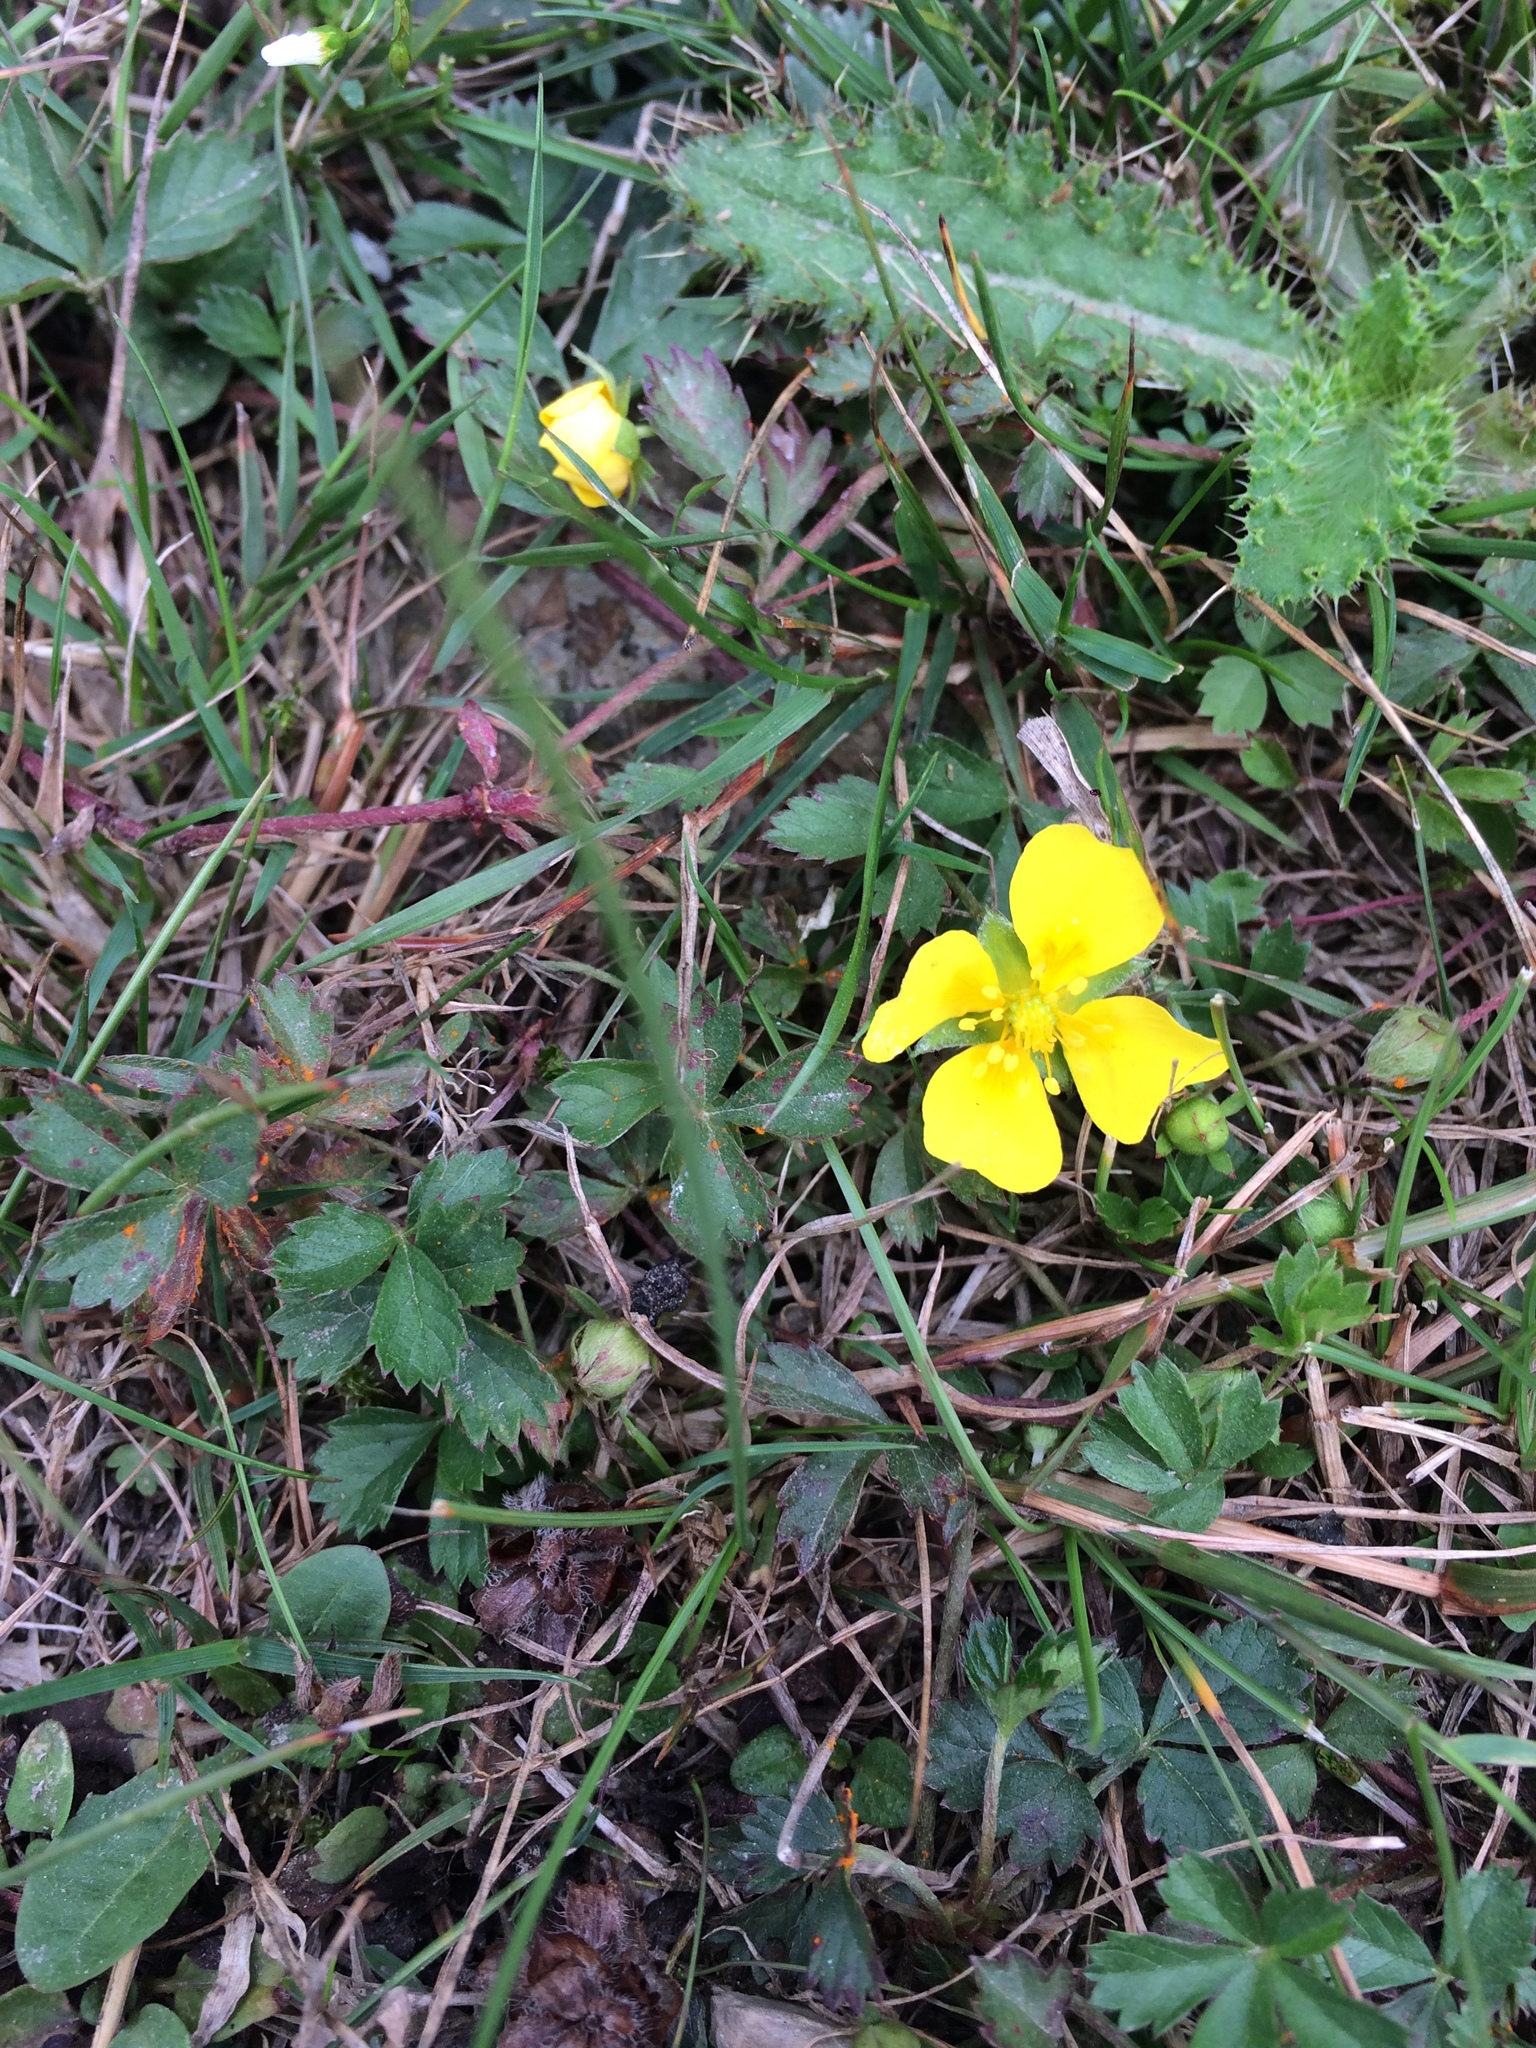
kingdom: Plantae
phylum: Tracheophyta
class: Magnoliopsida
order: Rosales
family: Rosaceae
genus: Potentilla
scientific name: Potentilla erecta
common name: Tormentil
